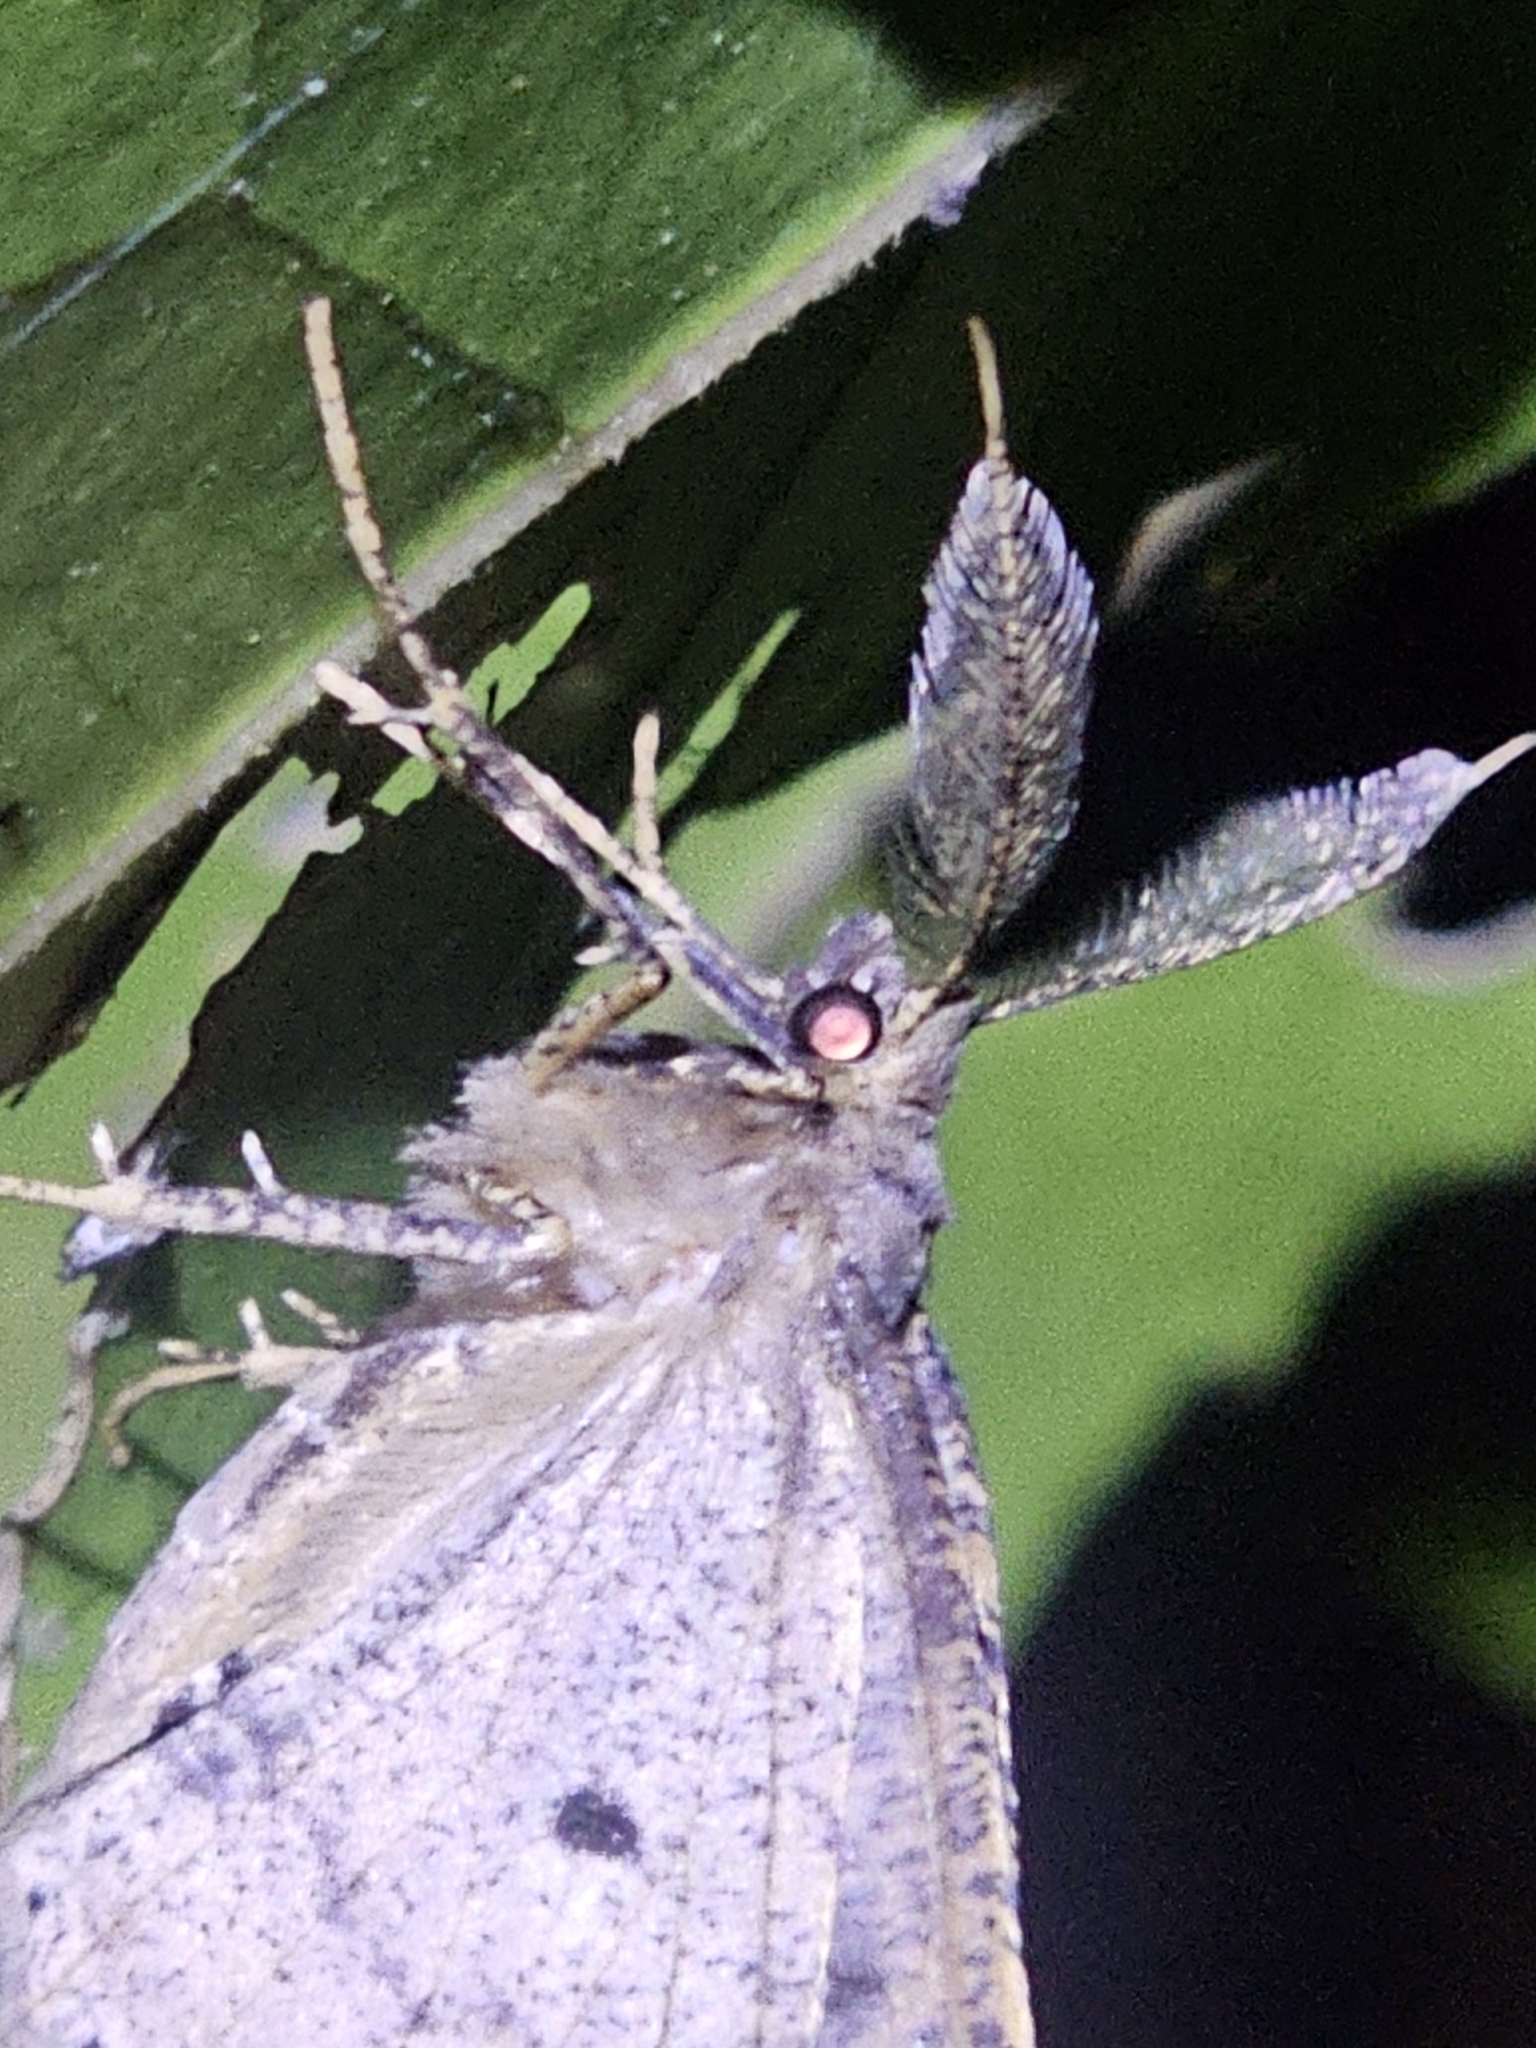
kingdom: Animalia
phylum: Arthropoda
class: Insecta
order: Lepidoptera
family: Geometridae
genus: Cleora
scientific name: Cleora scriptaria
